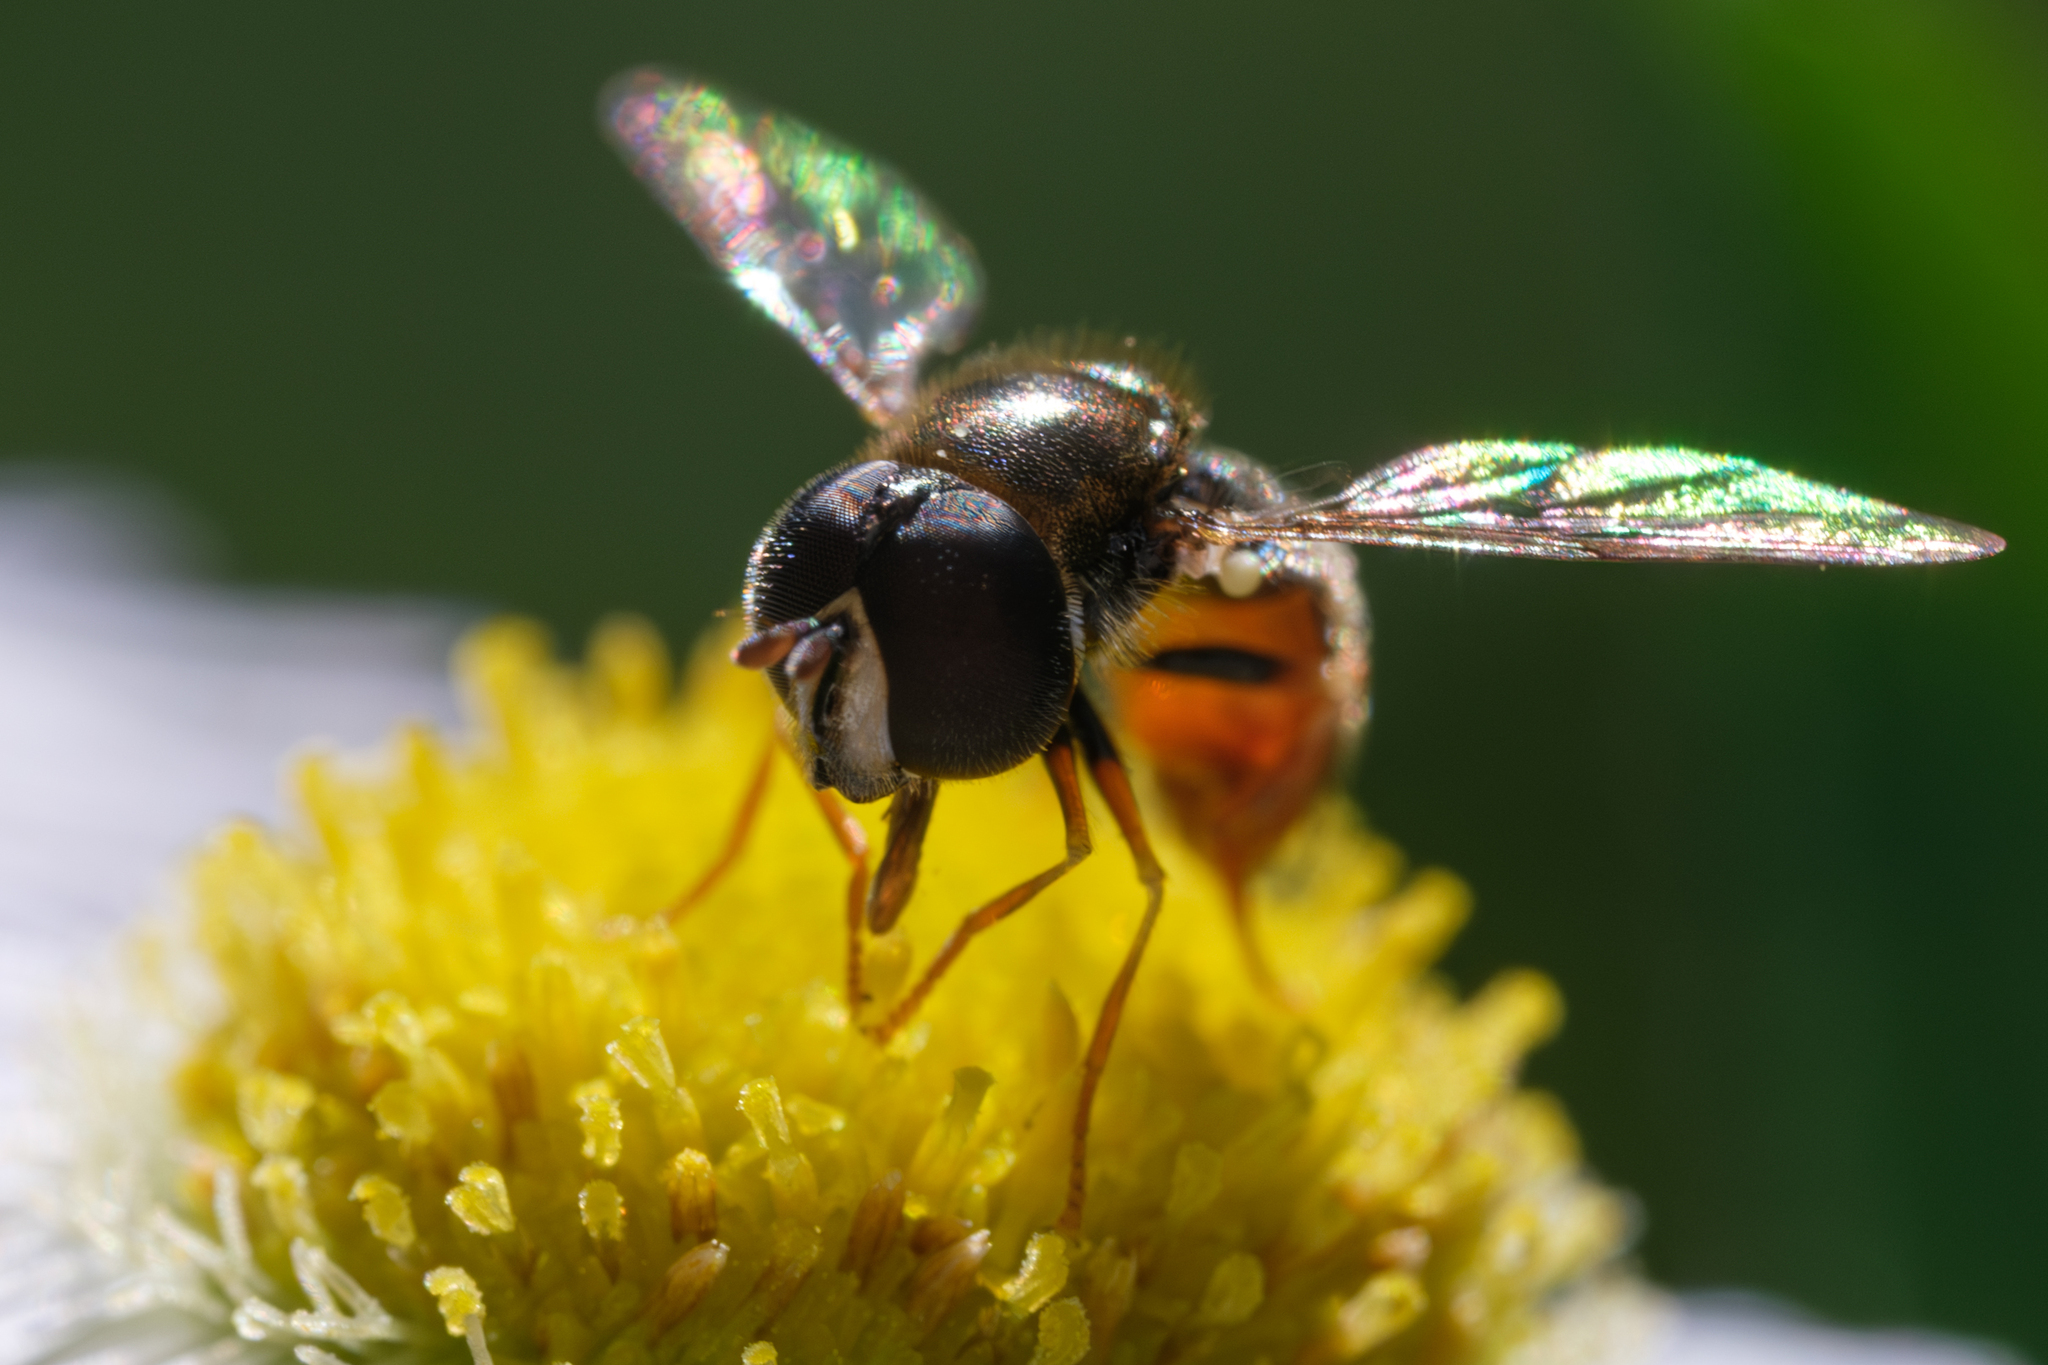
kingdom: Animalia
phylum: Arthropoda
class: Insecta
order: Diptera
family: Syrphidae
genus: Paragus
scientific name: Paragus haemorrhous
